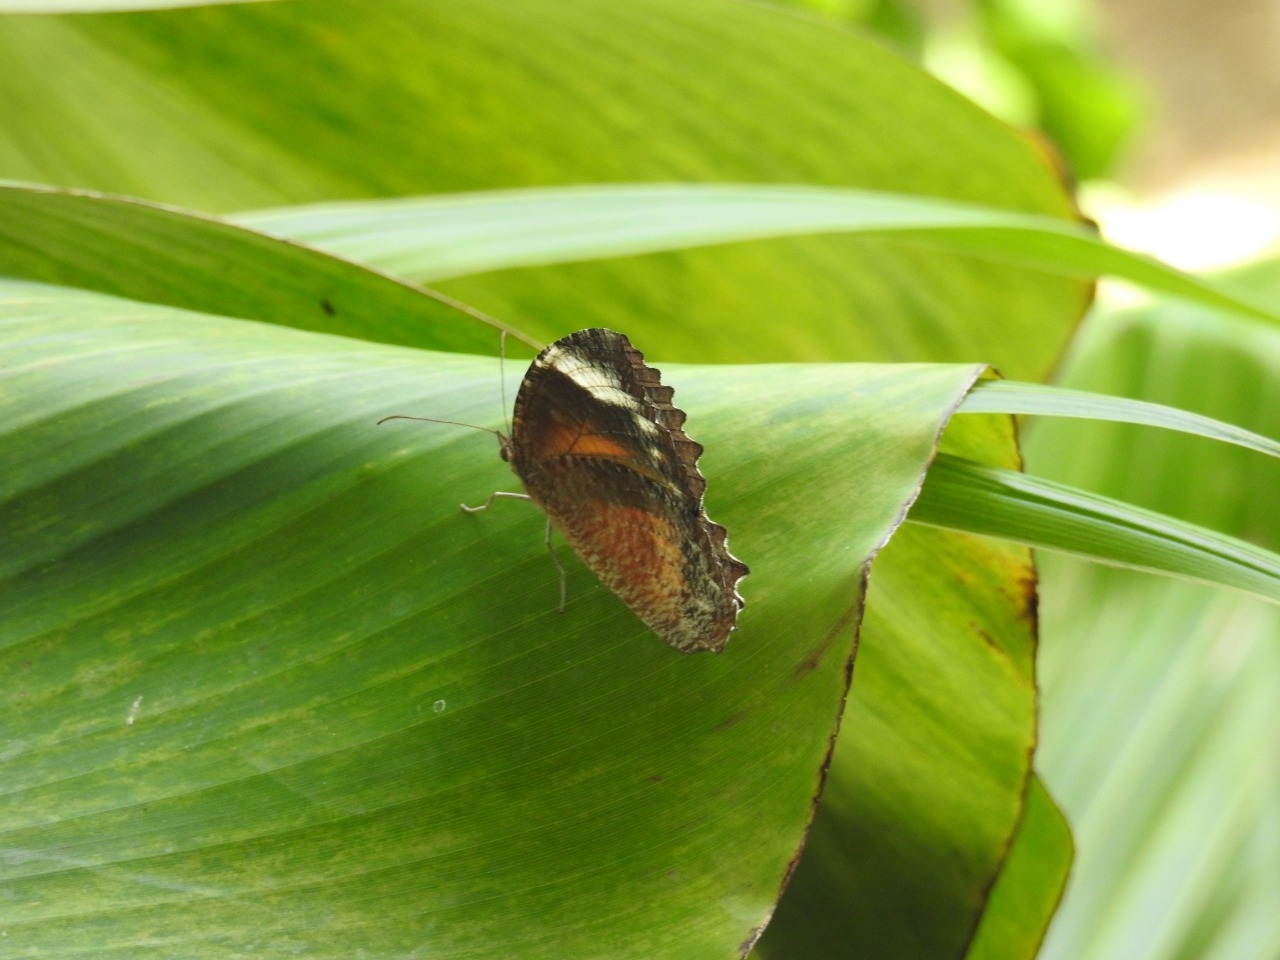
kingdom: Animalia
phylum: Arthropoda
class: Insecta
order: Lepidoptera
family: Nymphalidae
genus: Elymnias
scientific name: Elymnias hypermnestra
